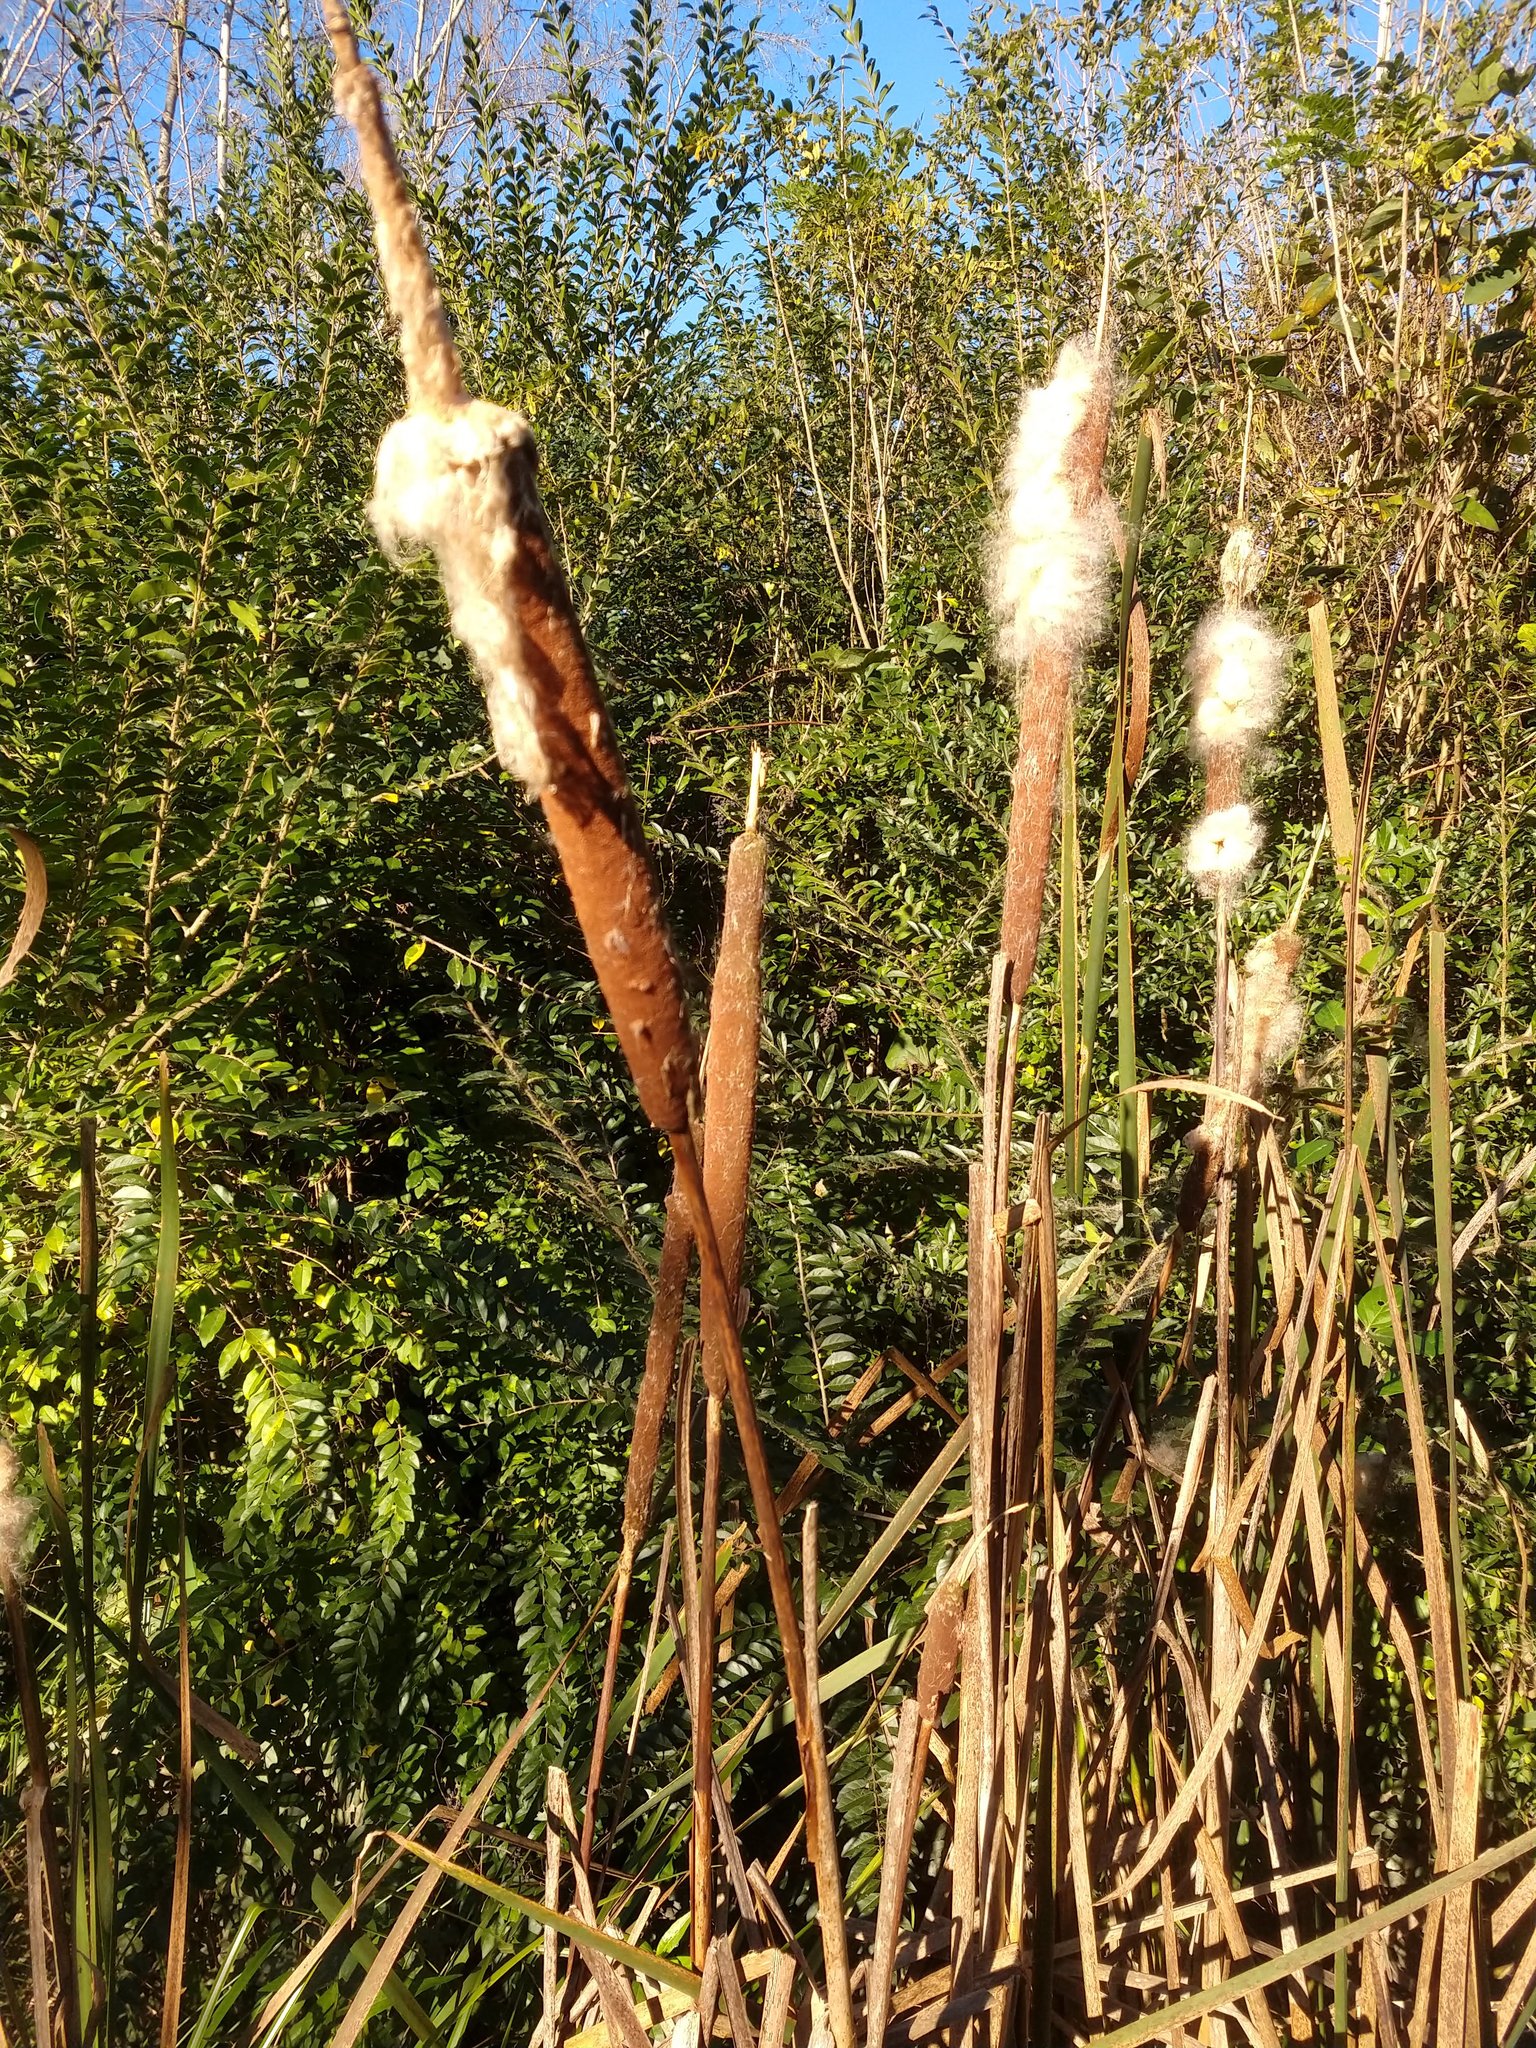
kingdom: Plantae
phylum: Tracheophyta
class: Liliopsida
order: Poales
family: Typhaceae
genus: Typha
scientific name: Typha latifolia
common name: Broadleaf cattail
